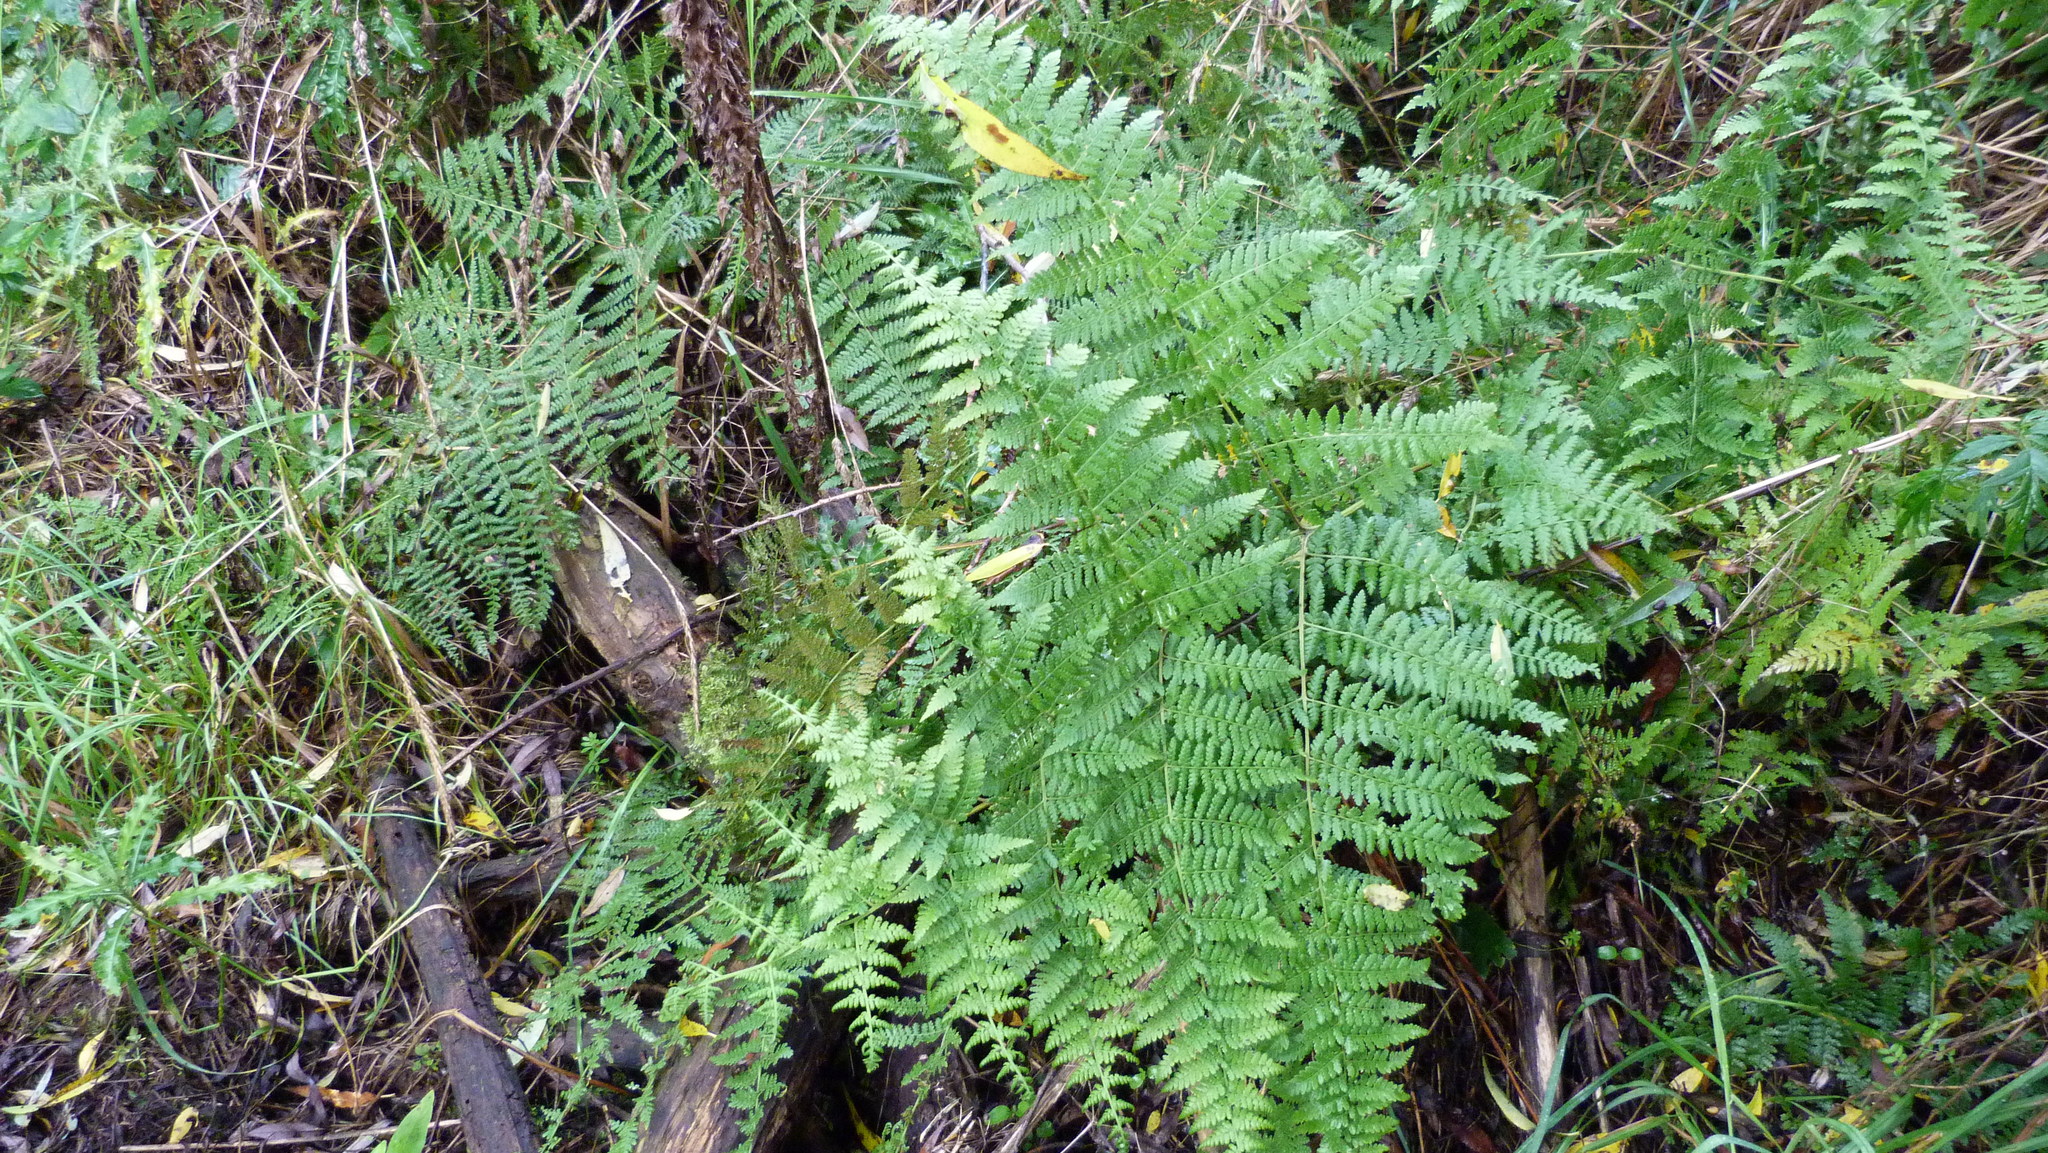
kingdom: Plantae
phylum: Tracheophyta
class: Polypodiopsida
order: Polypodiales
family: Dennstaedtiaceae
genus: Hypolepis
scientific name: Hypolepis ambigua
